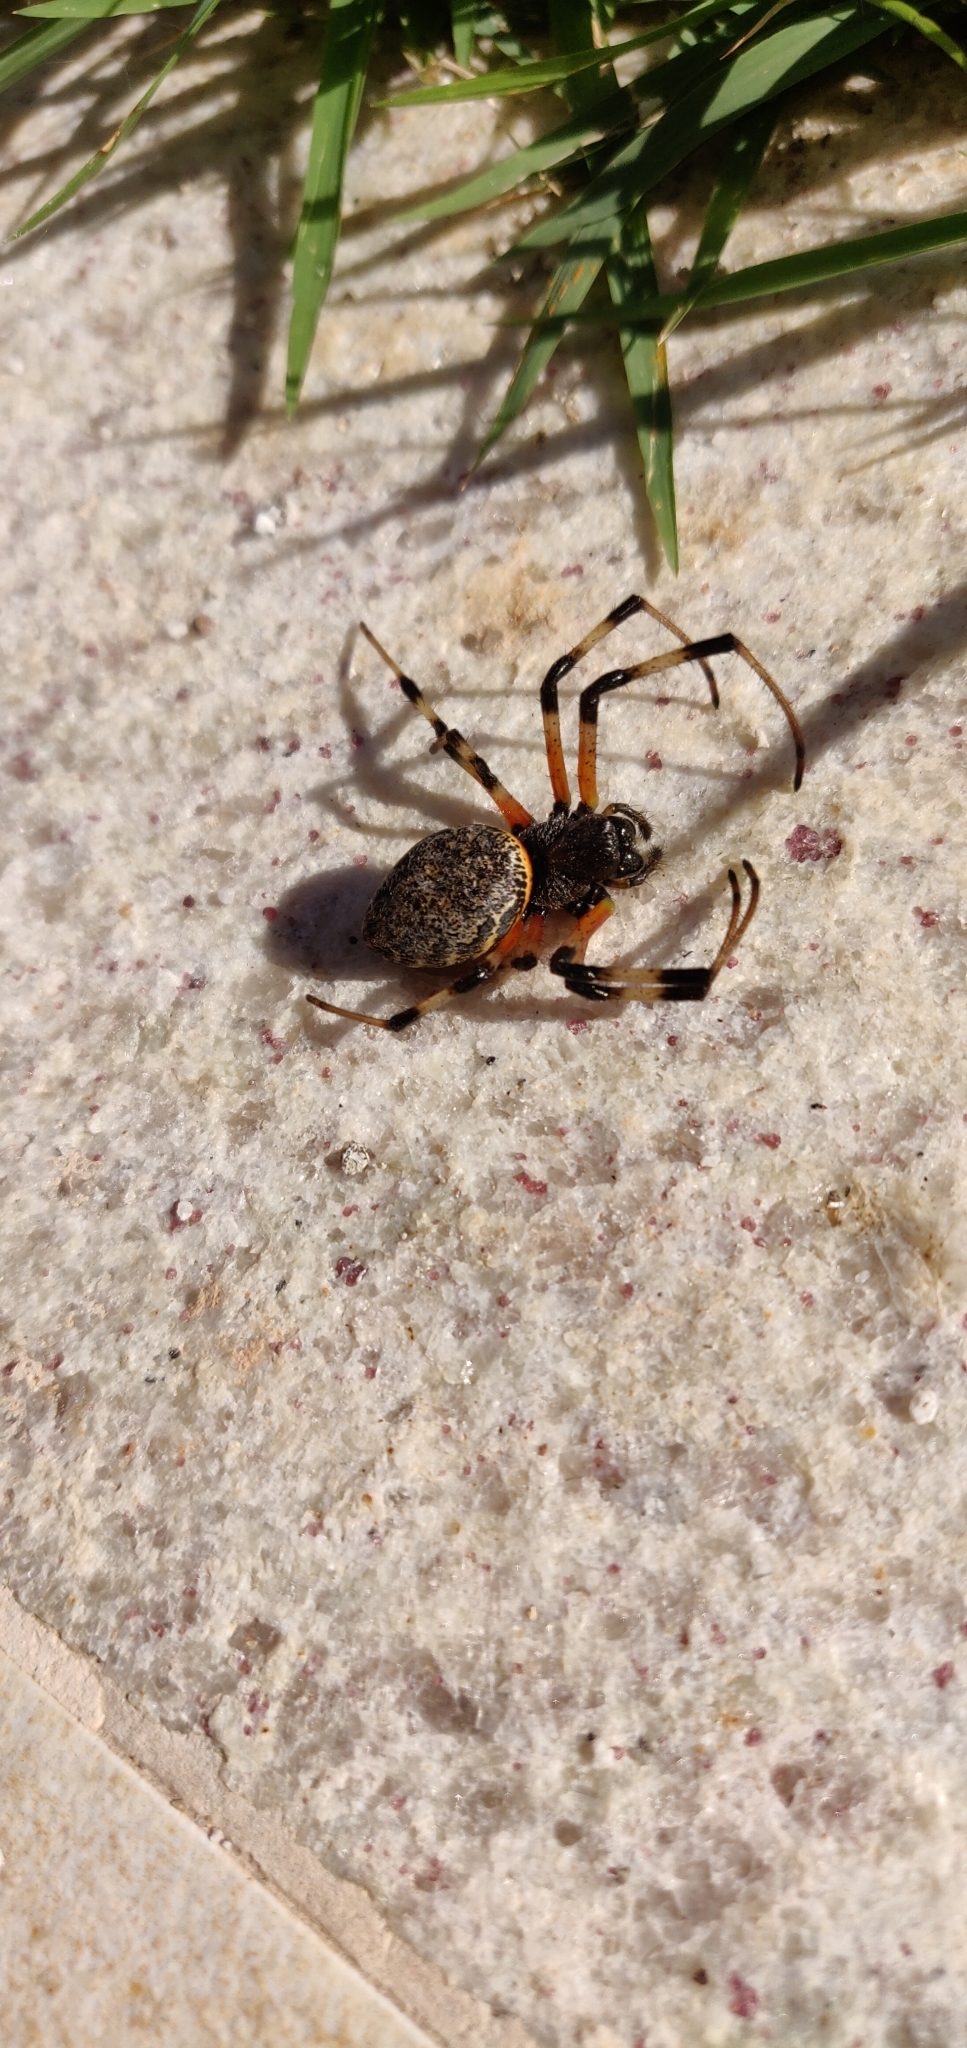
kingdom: Animalia
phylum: Arthropoda
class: Arachnida
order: Araneae
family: Araneidae
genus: Nephilingis
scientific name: Nephilingis cruentata
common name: African hermit spider
